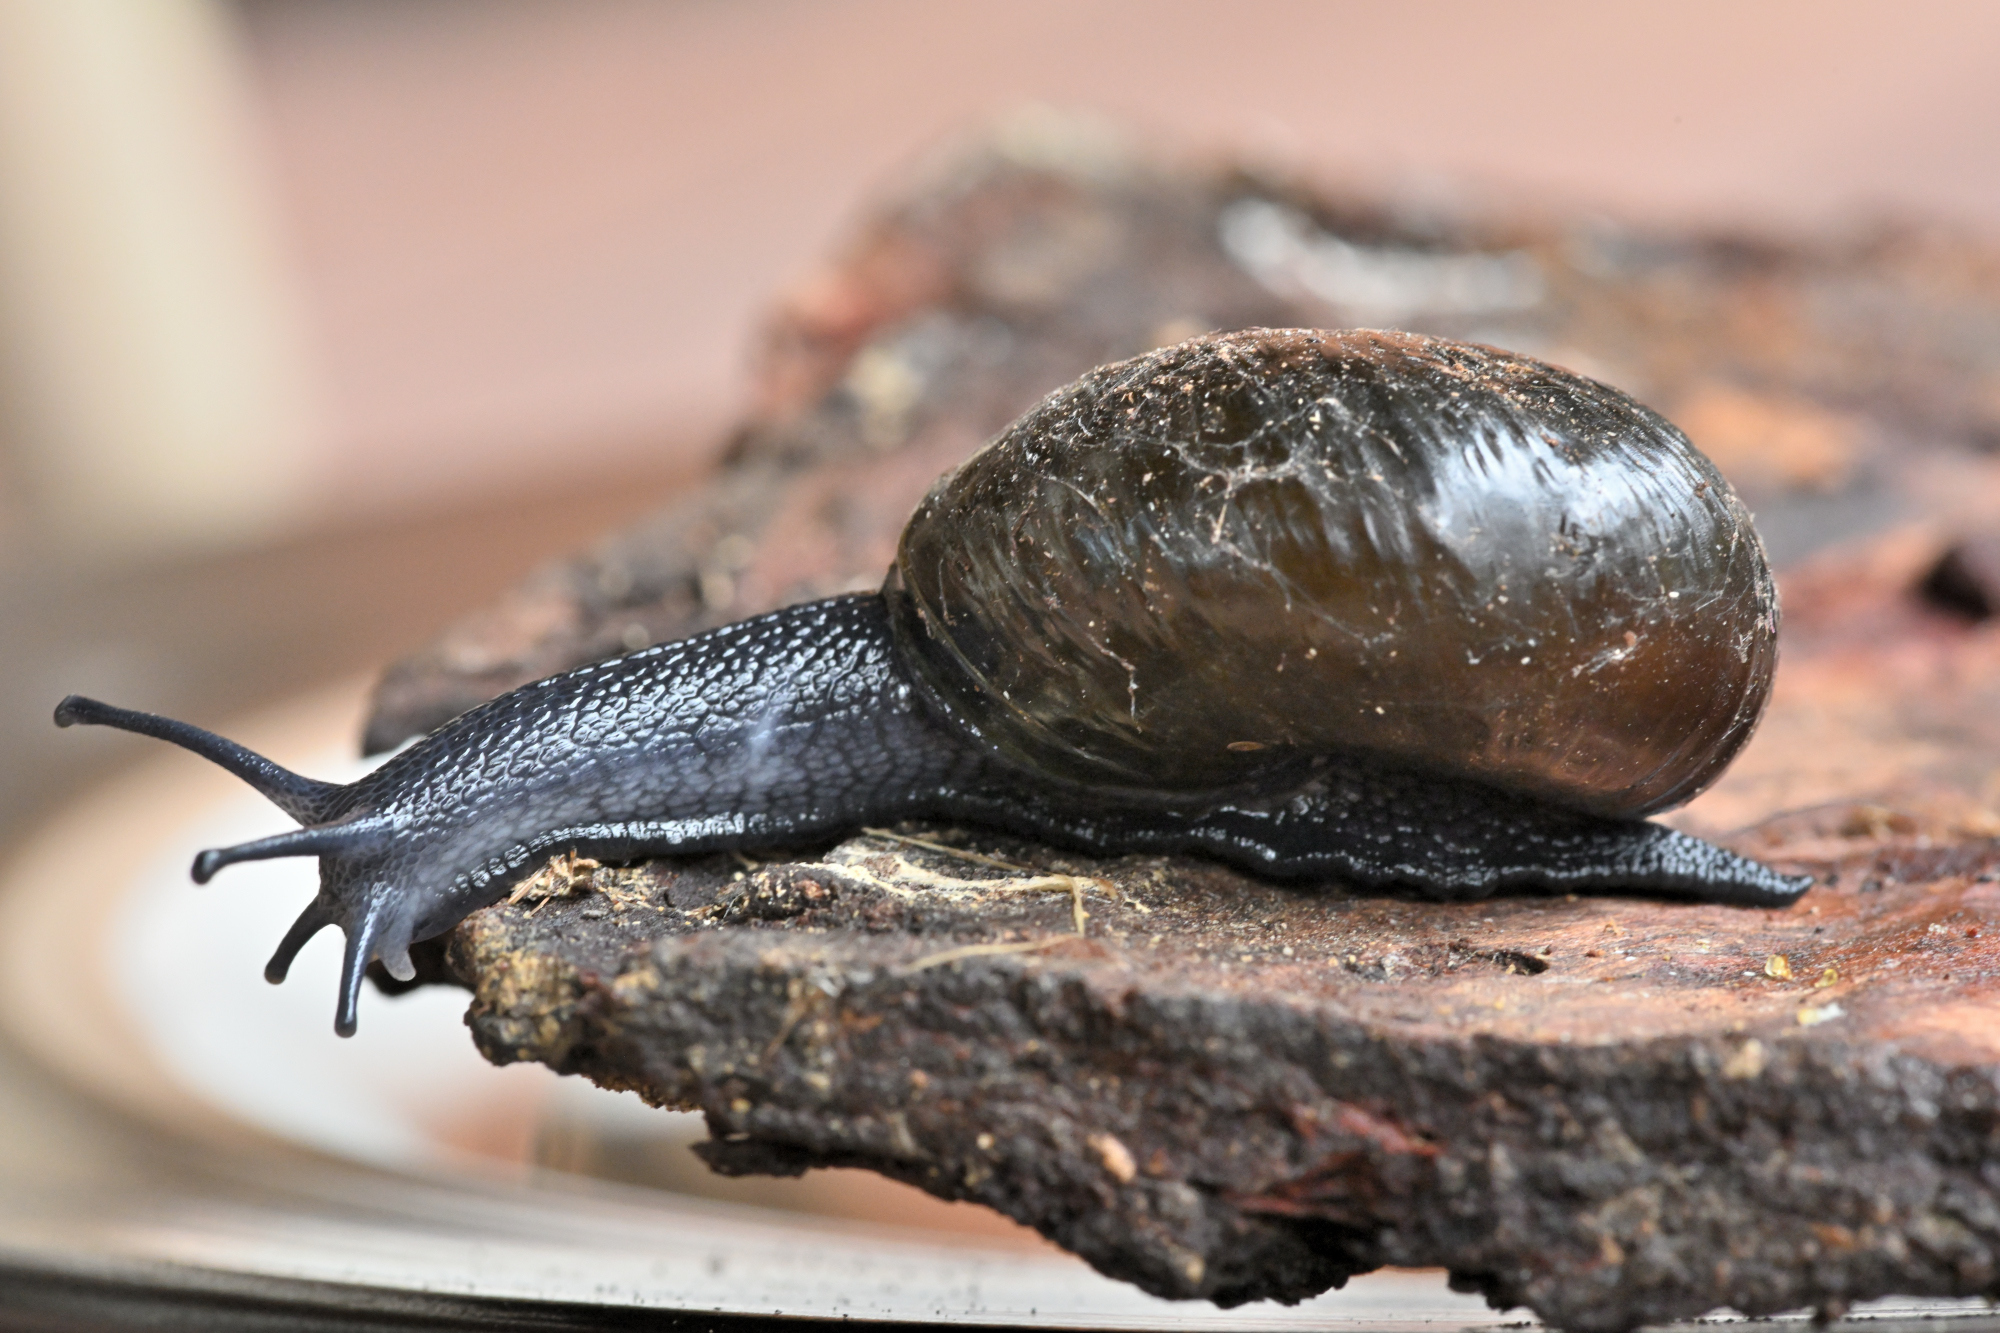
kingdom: Animalia
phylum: Mollusca
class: Gastropoda
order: Stylommatophora
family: Rhytididae
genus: Wainuia
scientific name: Wainuia edwardi
